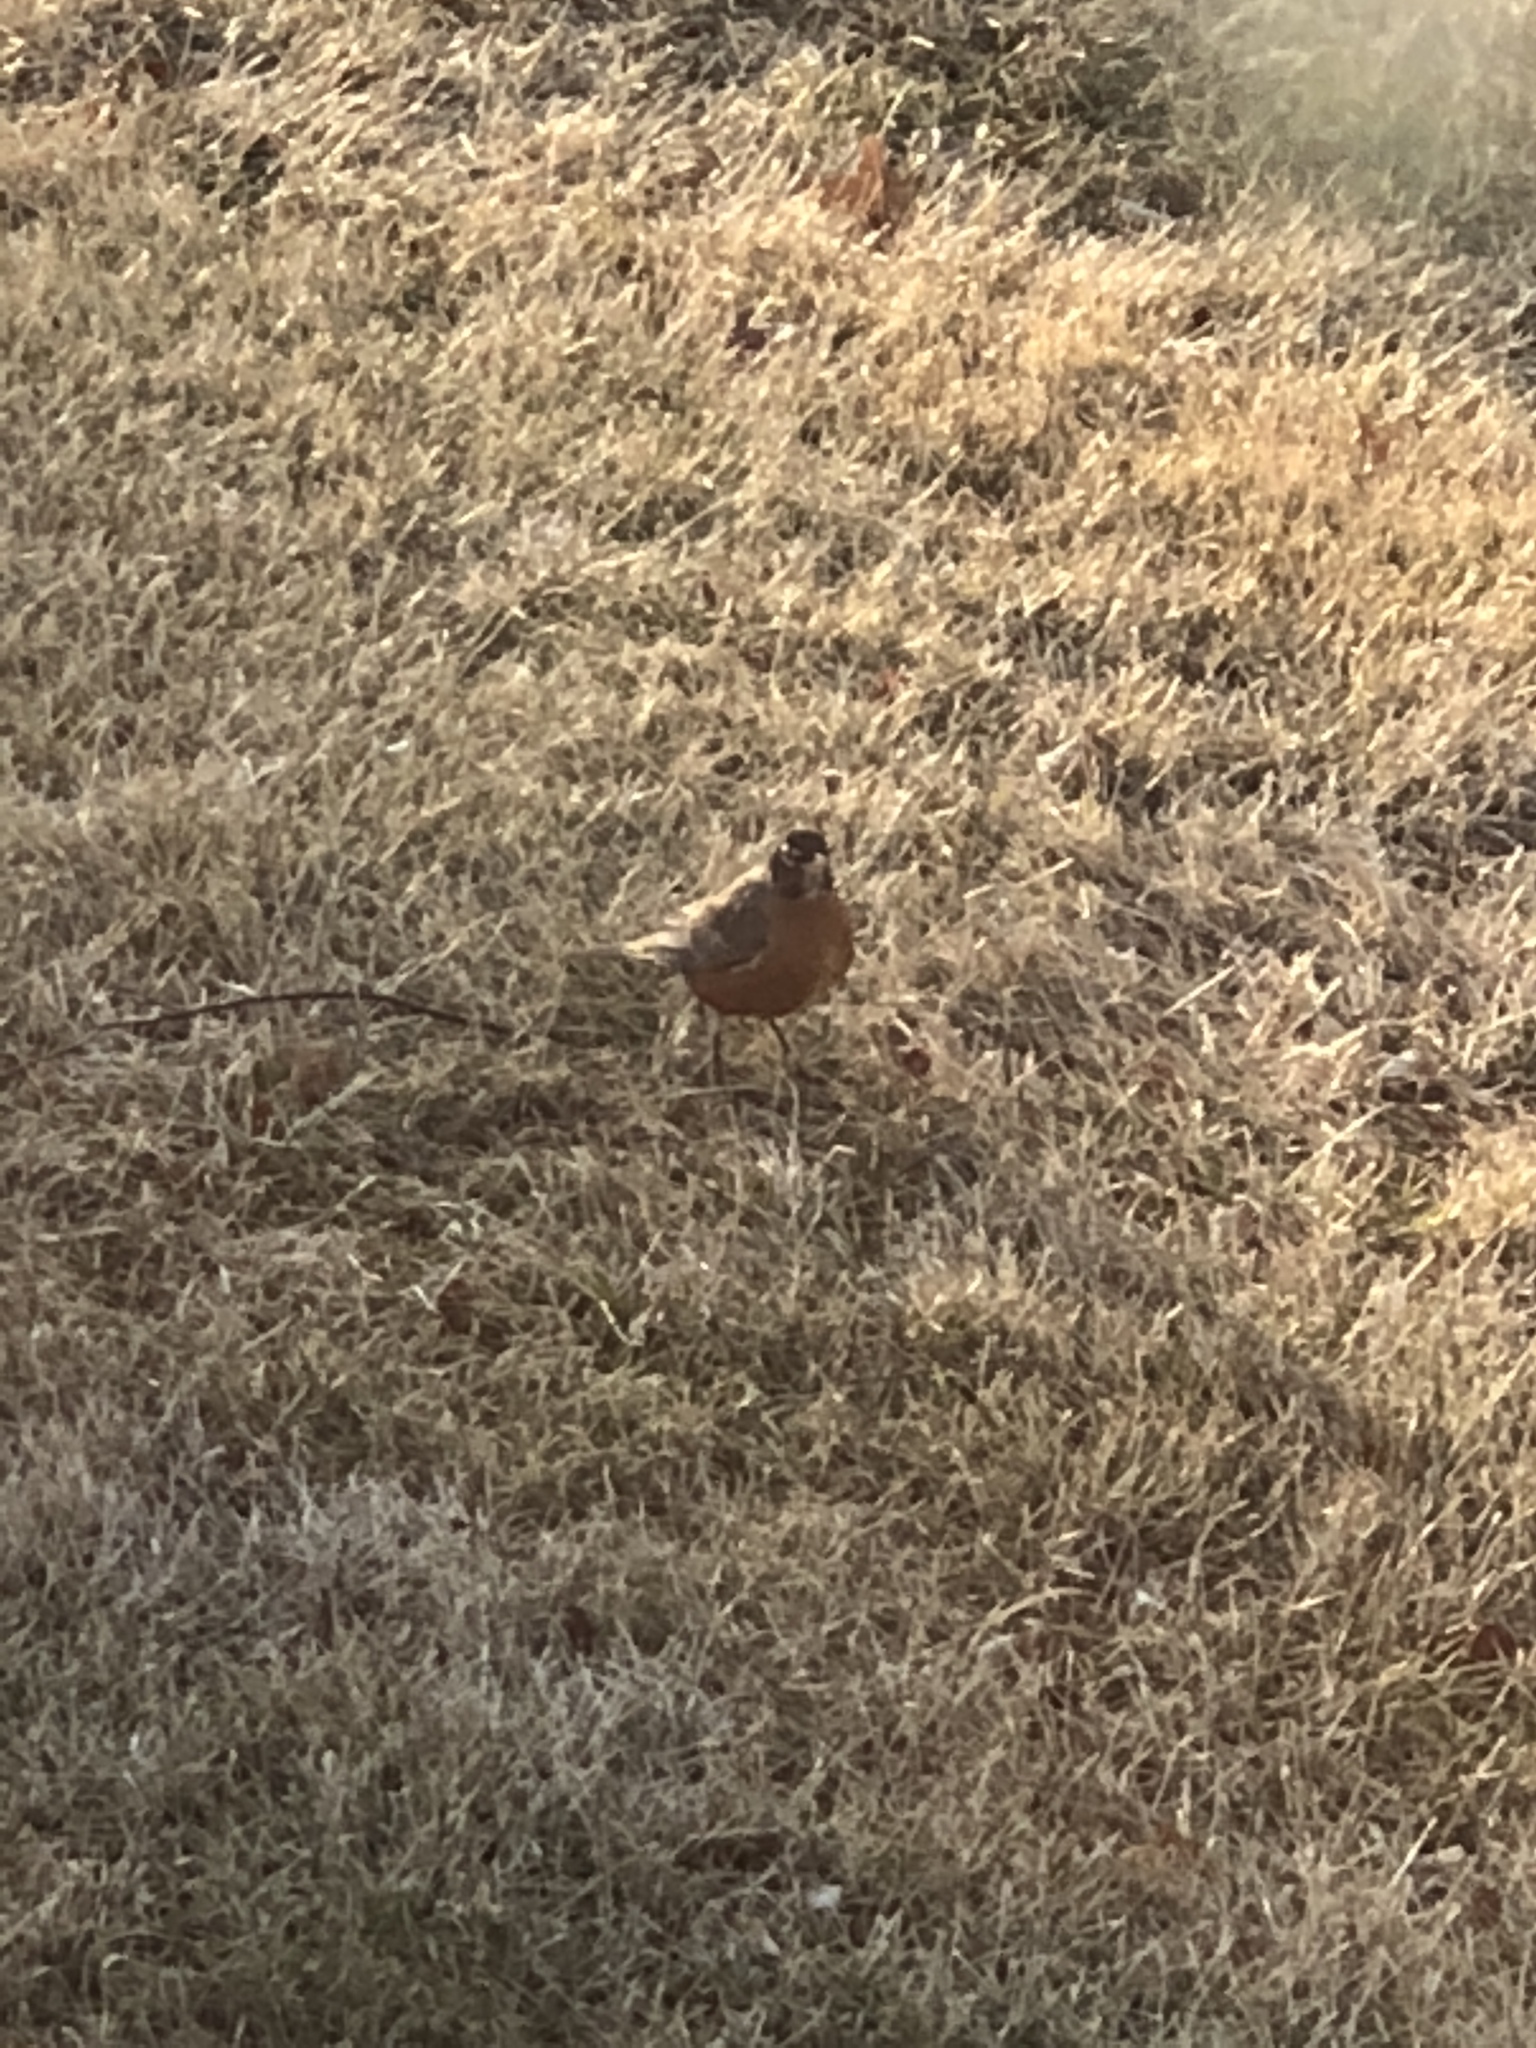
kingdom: Animalia
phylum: Chordata
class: Aves
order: Passeriformes
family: Turdidae
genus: Turdus
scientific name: Turdus migratorius
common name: American robin
